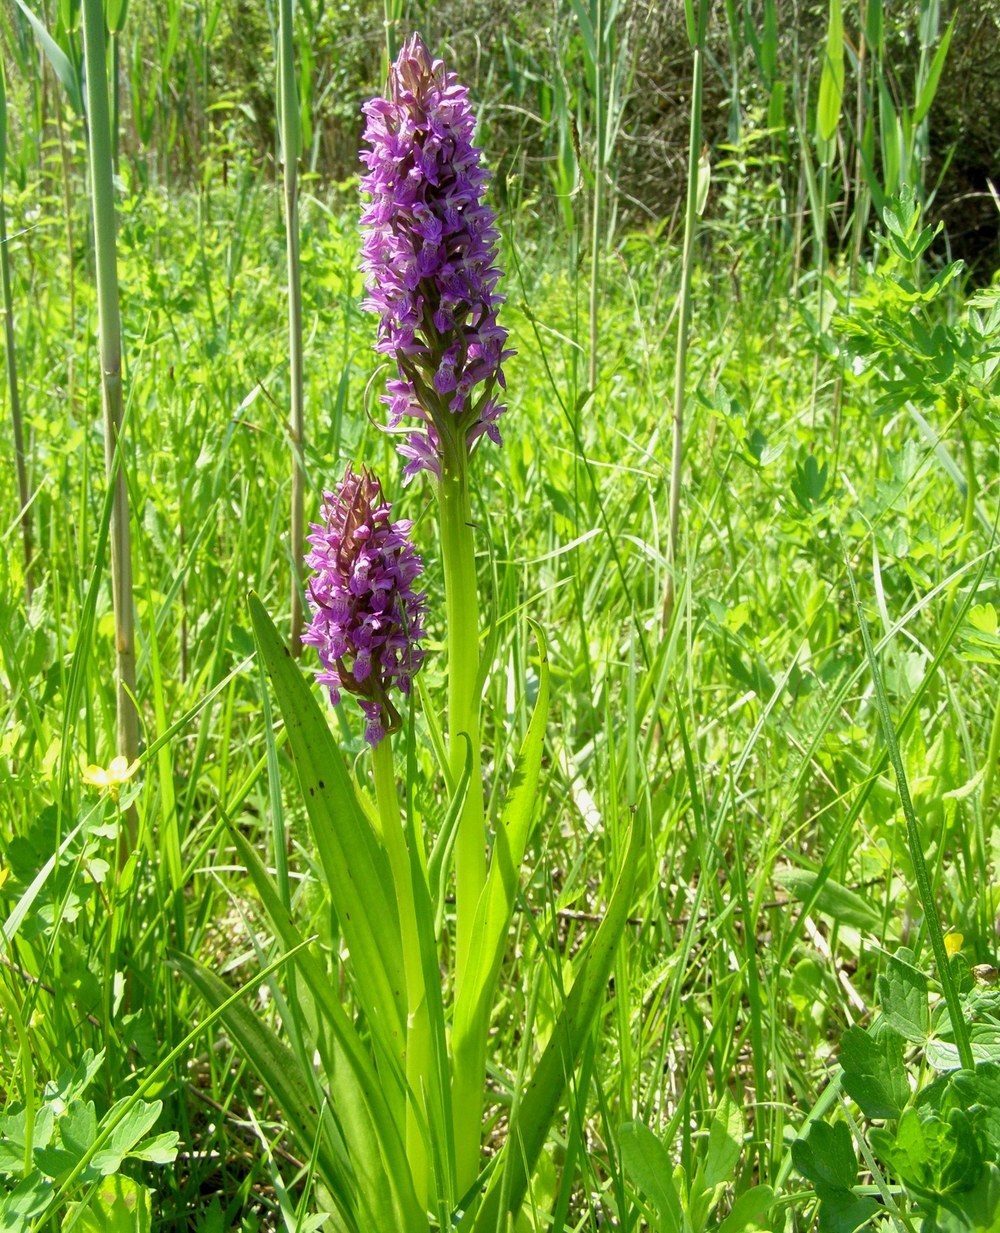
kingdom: Plantae
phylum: Tracheophyta
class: Liliopsida
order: Asparagales
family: Orchidaceae
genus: Dactylorhiza
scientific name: Dactylorhiza incarnata
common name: Early marsh-orchid
